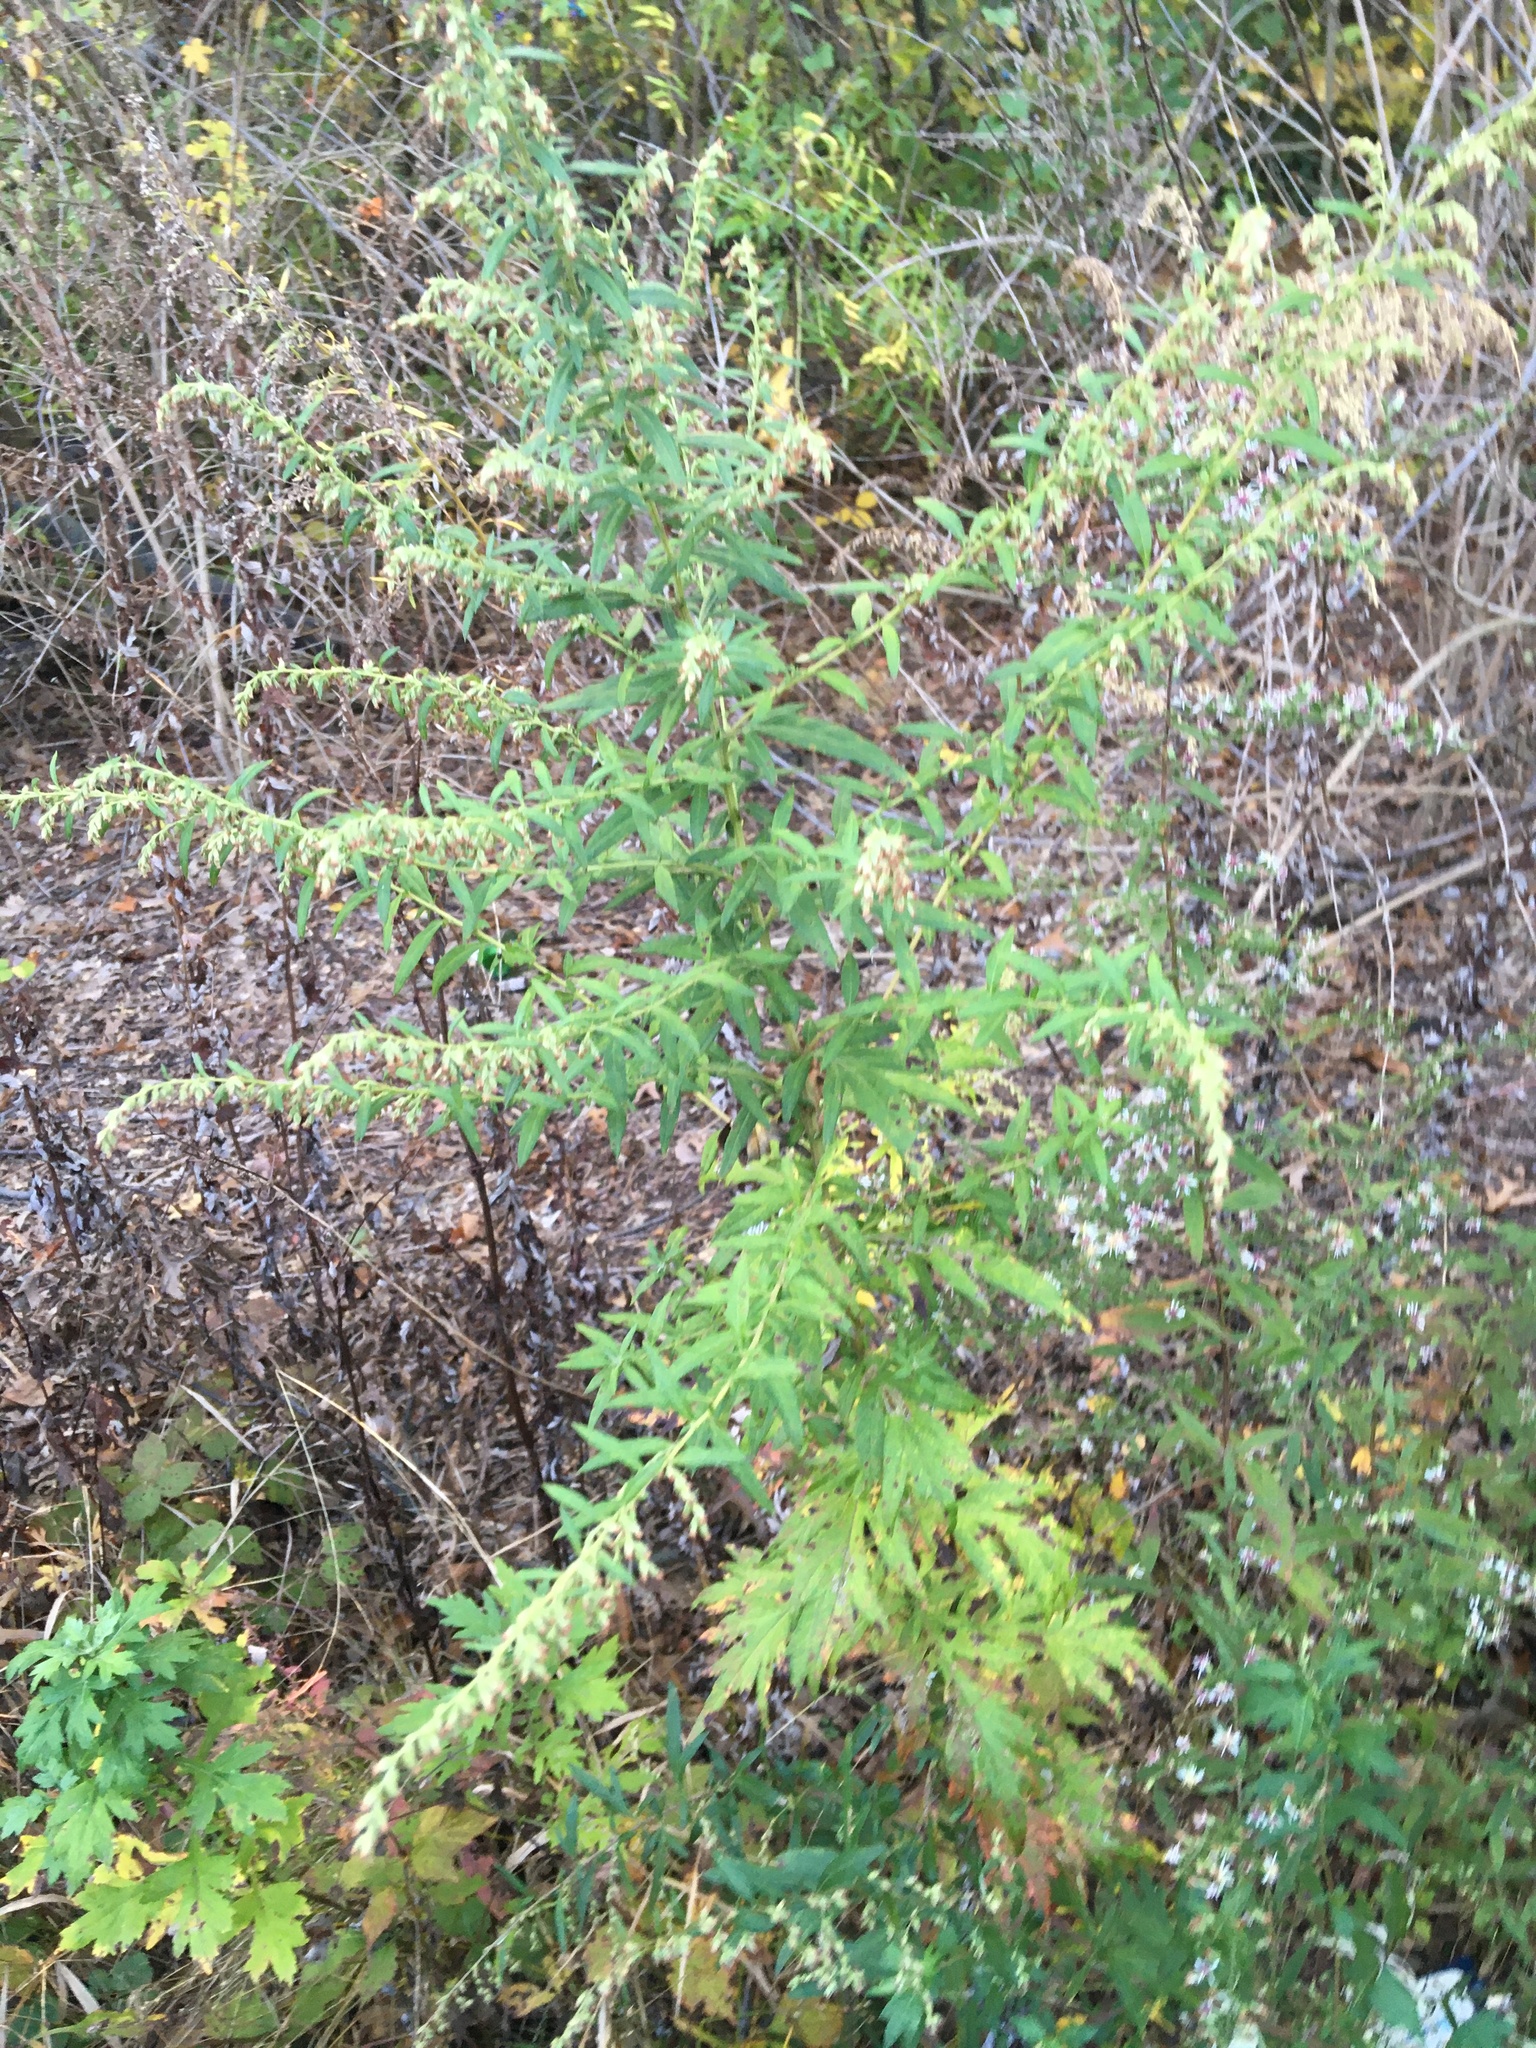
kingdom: Plantae
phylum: Tracheophyta
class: Magnoliopsida
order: Asterales
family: Asteraceae
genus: Artemisia
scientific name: Artemisia vulgaris
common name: Mugwort
